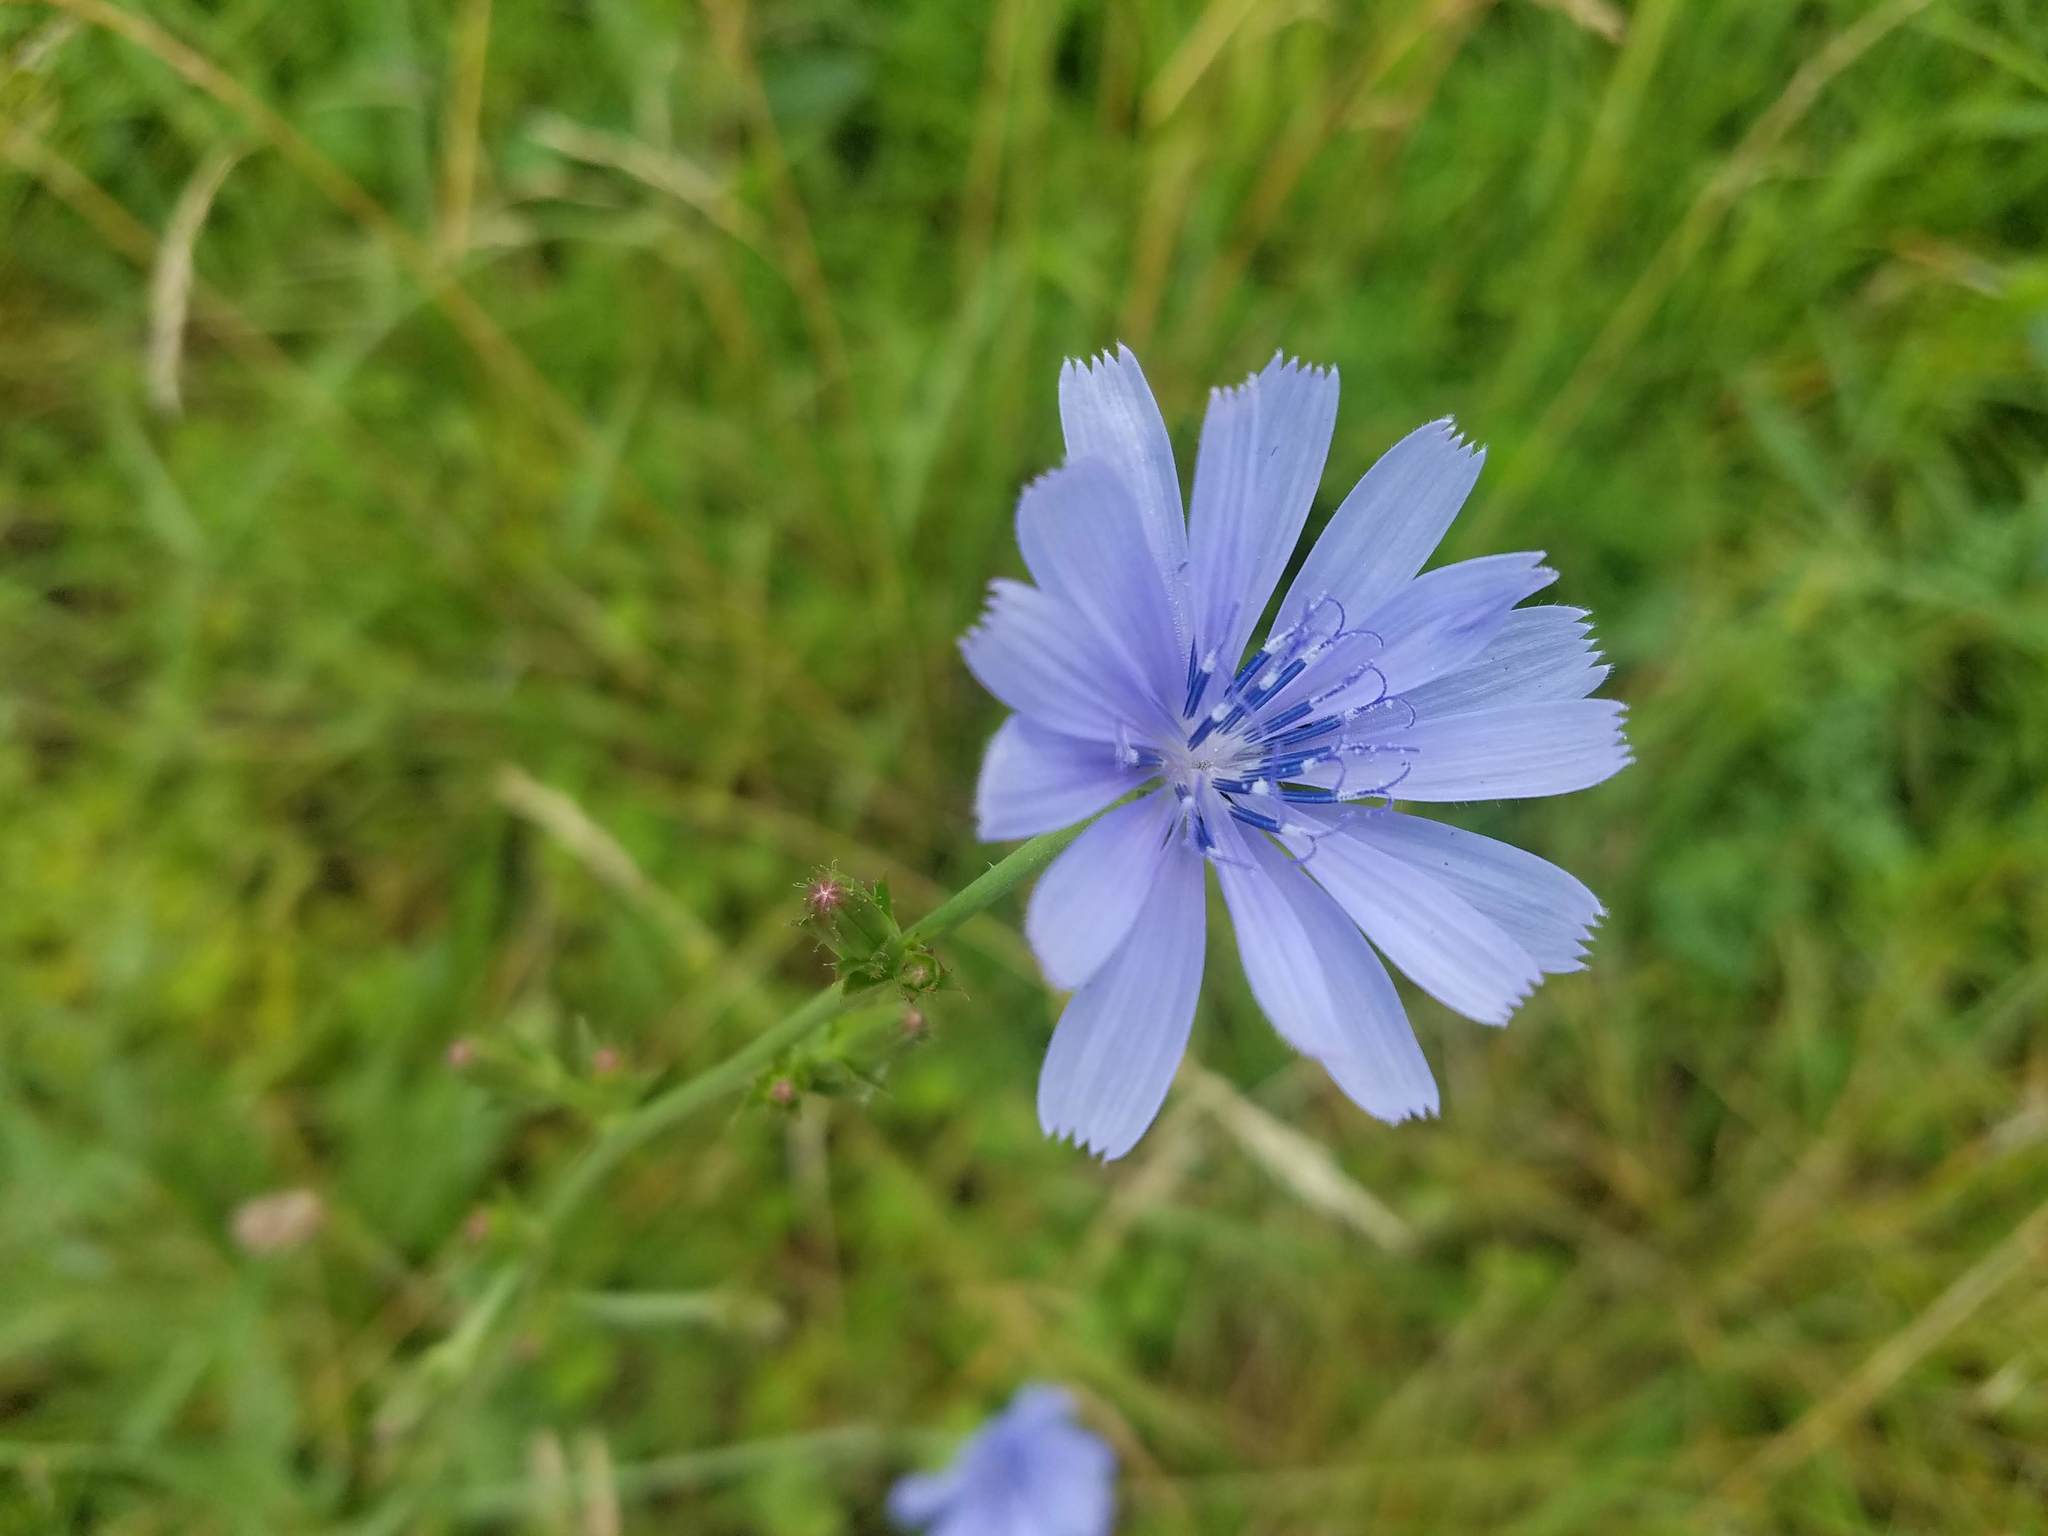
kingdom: Plantae
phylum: Tracheophyta
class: Magnoliopsida
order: Asterales
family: Asteraceae
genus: Cichorium
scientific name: Cichorium intybus
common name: Chicory
